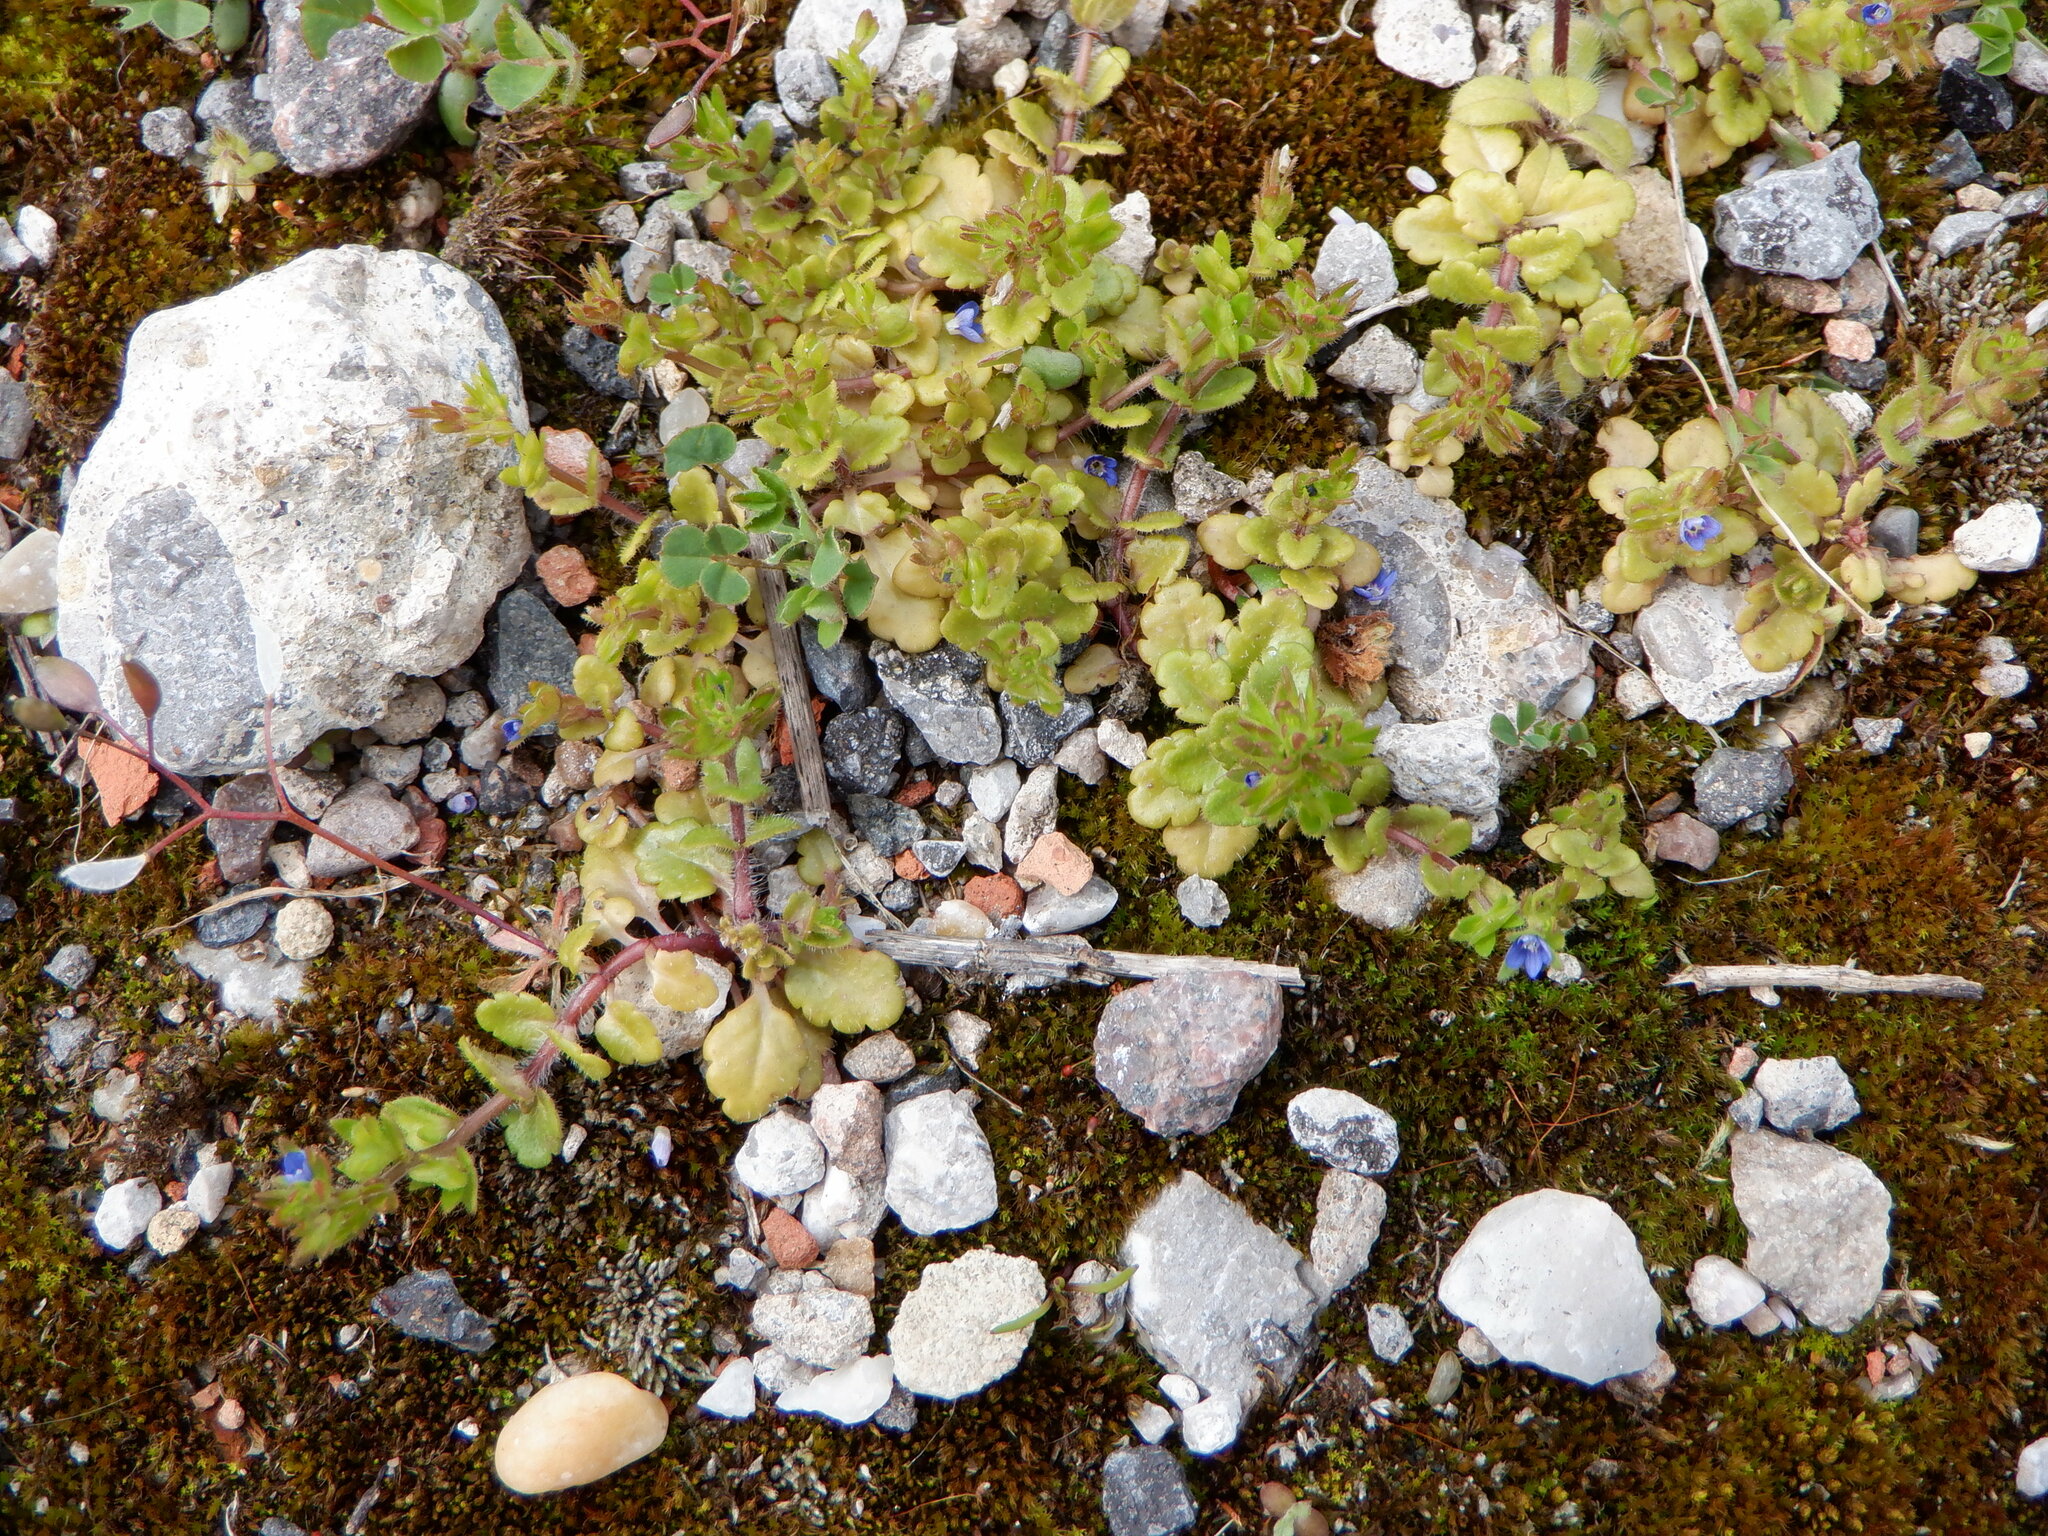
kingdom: Plantae
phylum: Tracheophyta
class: Magnoliopsida
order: Lamiales
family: Plantaginaceae
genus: Veronica
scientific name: Veronica arvensis
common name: Corn speedwell
